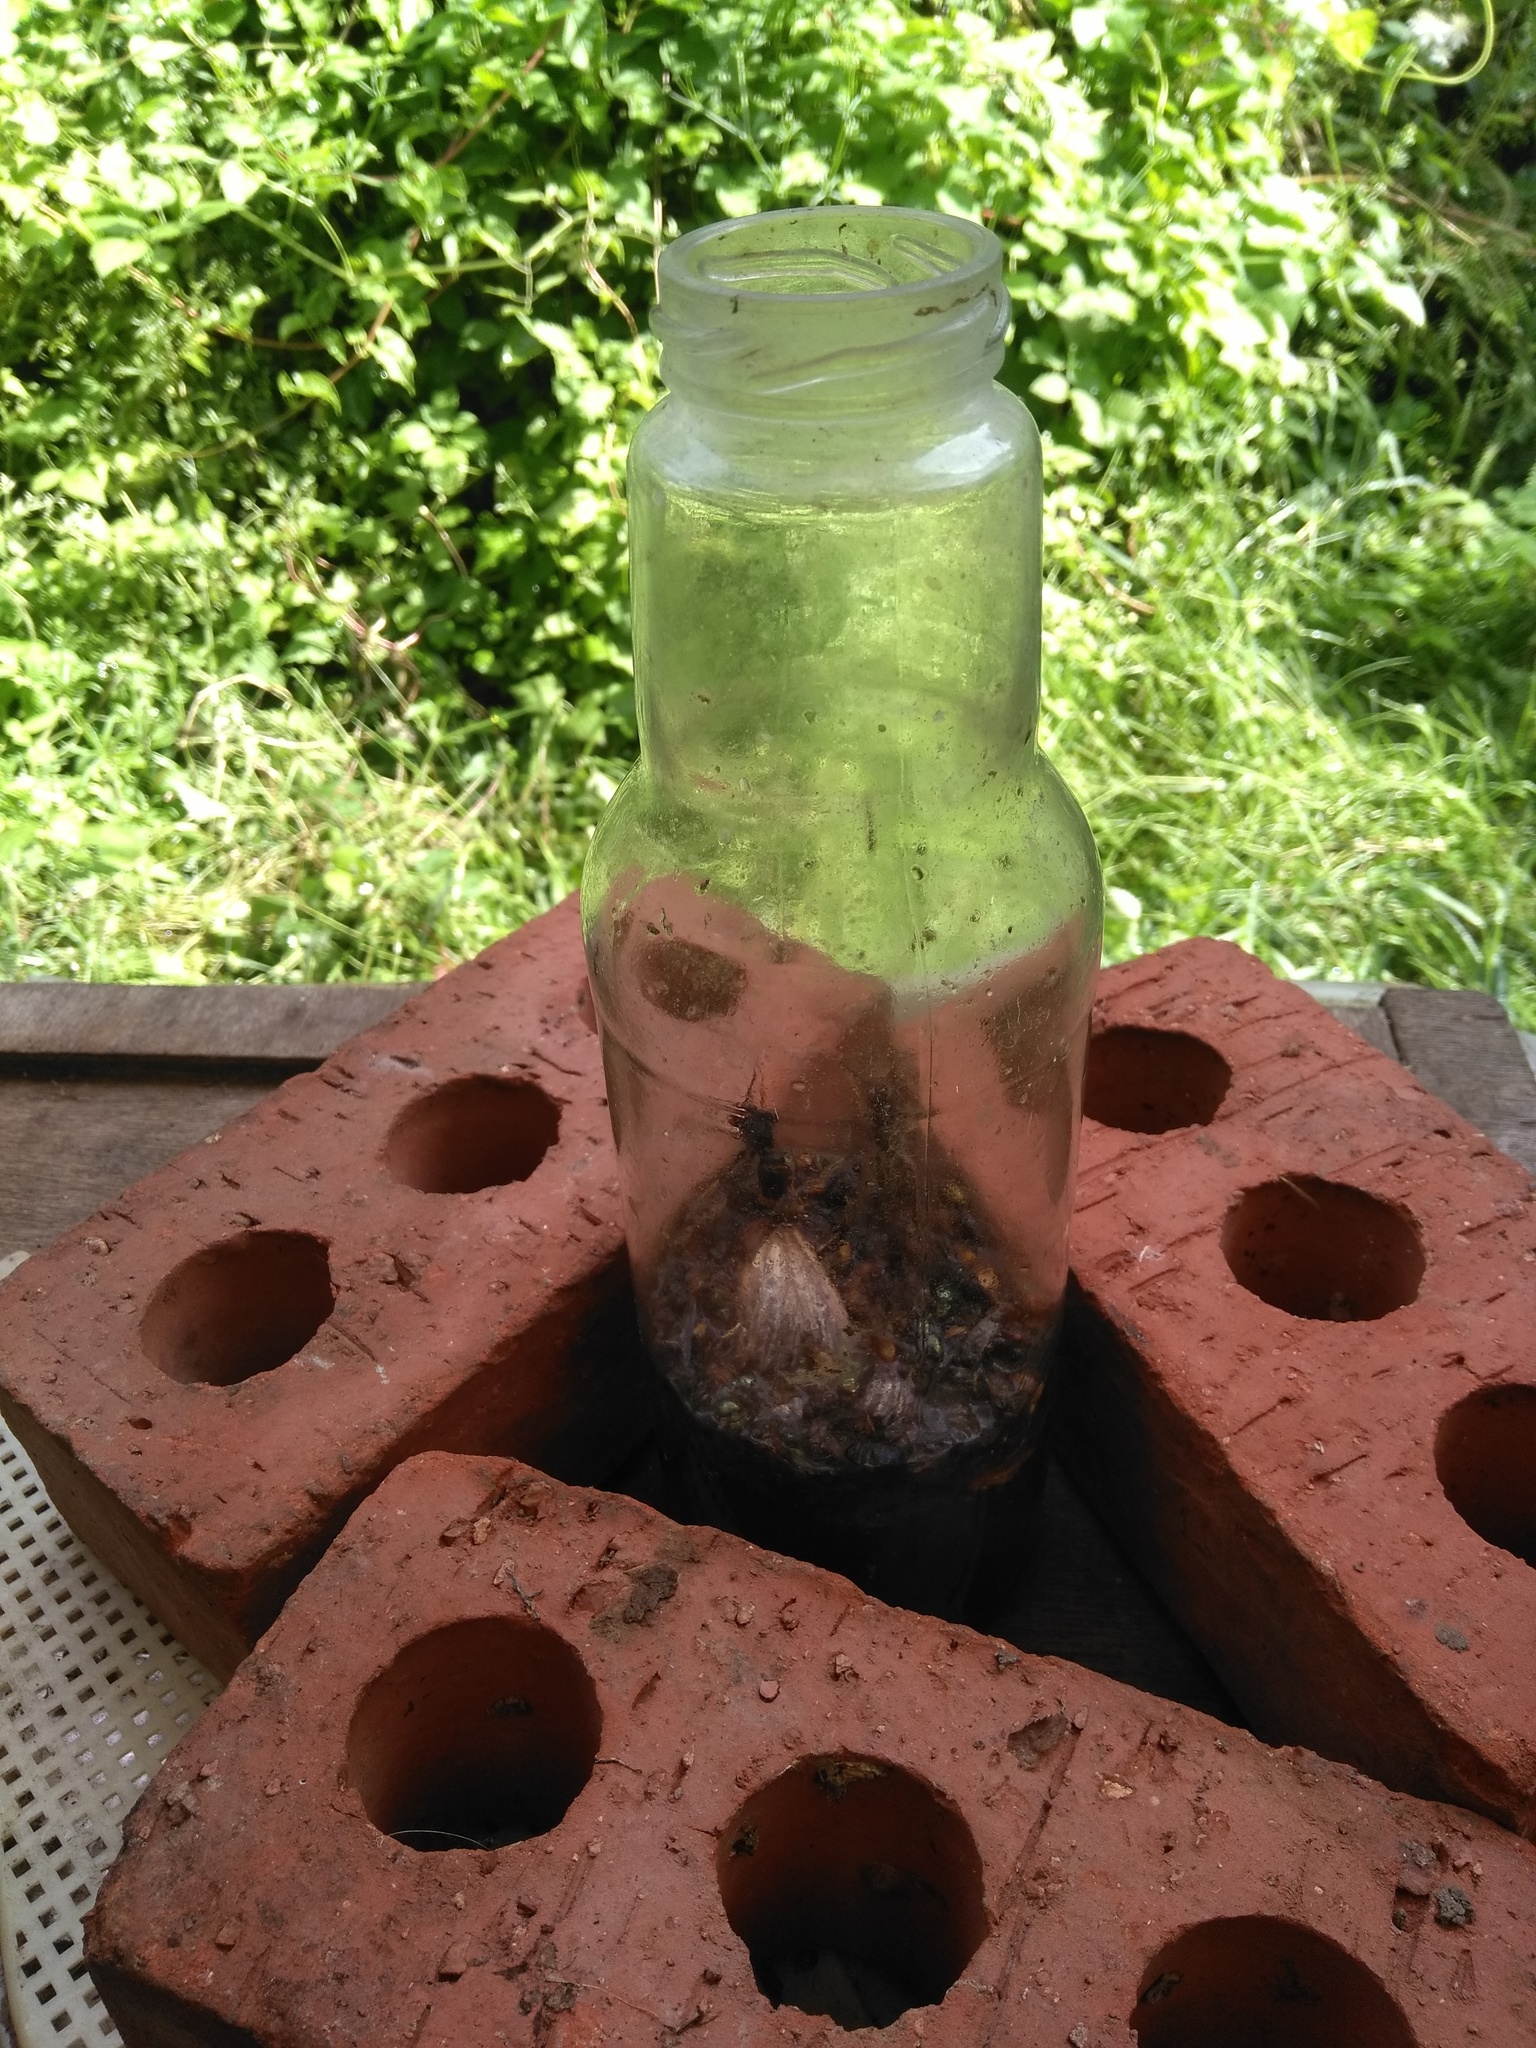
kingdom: Animalia
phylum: Arthropoda
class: Insecta
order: Hymenoptera
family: Vespidae
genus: Vespa
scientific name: Vespa velutina
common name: Asian hornet
